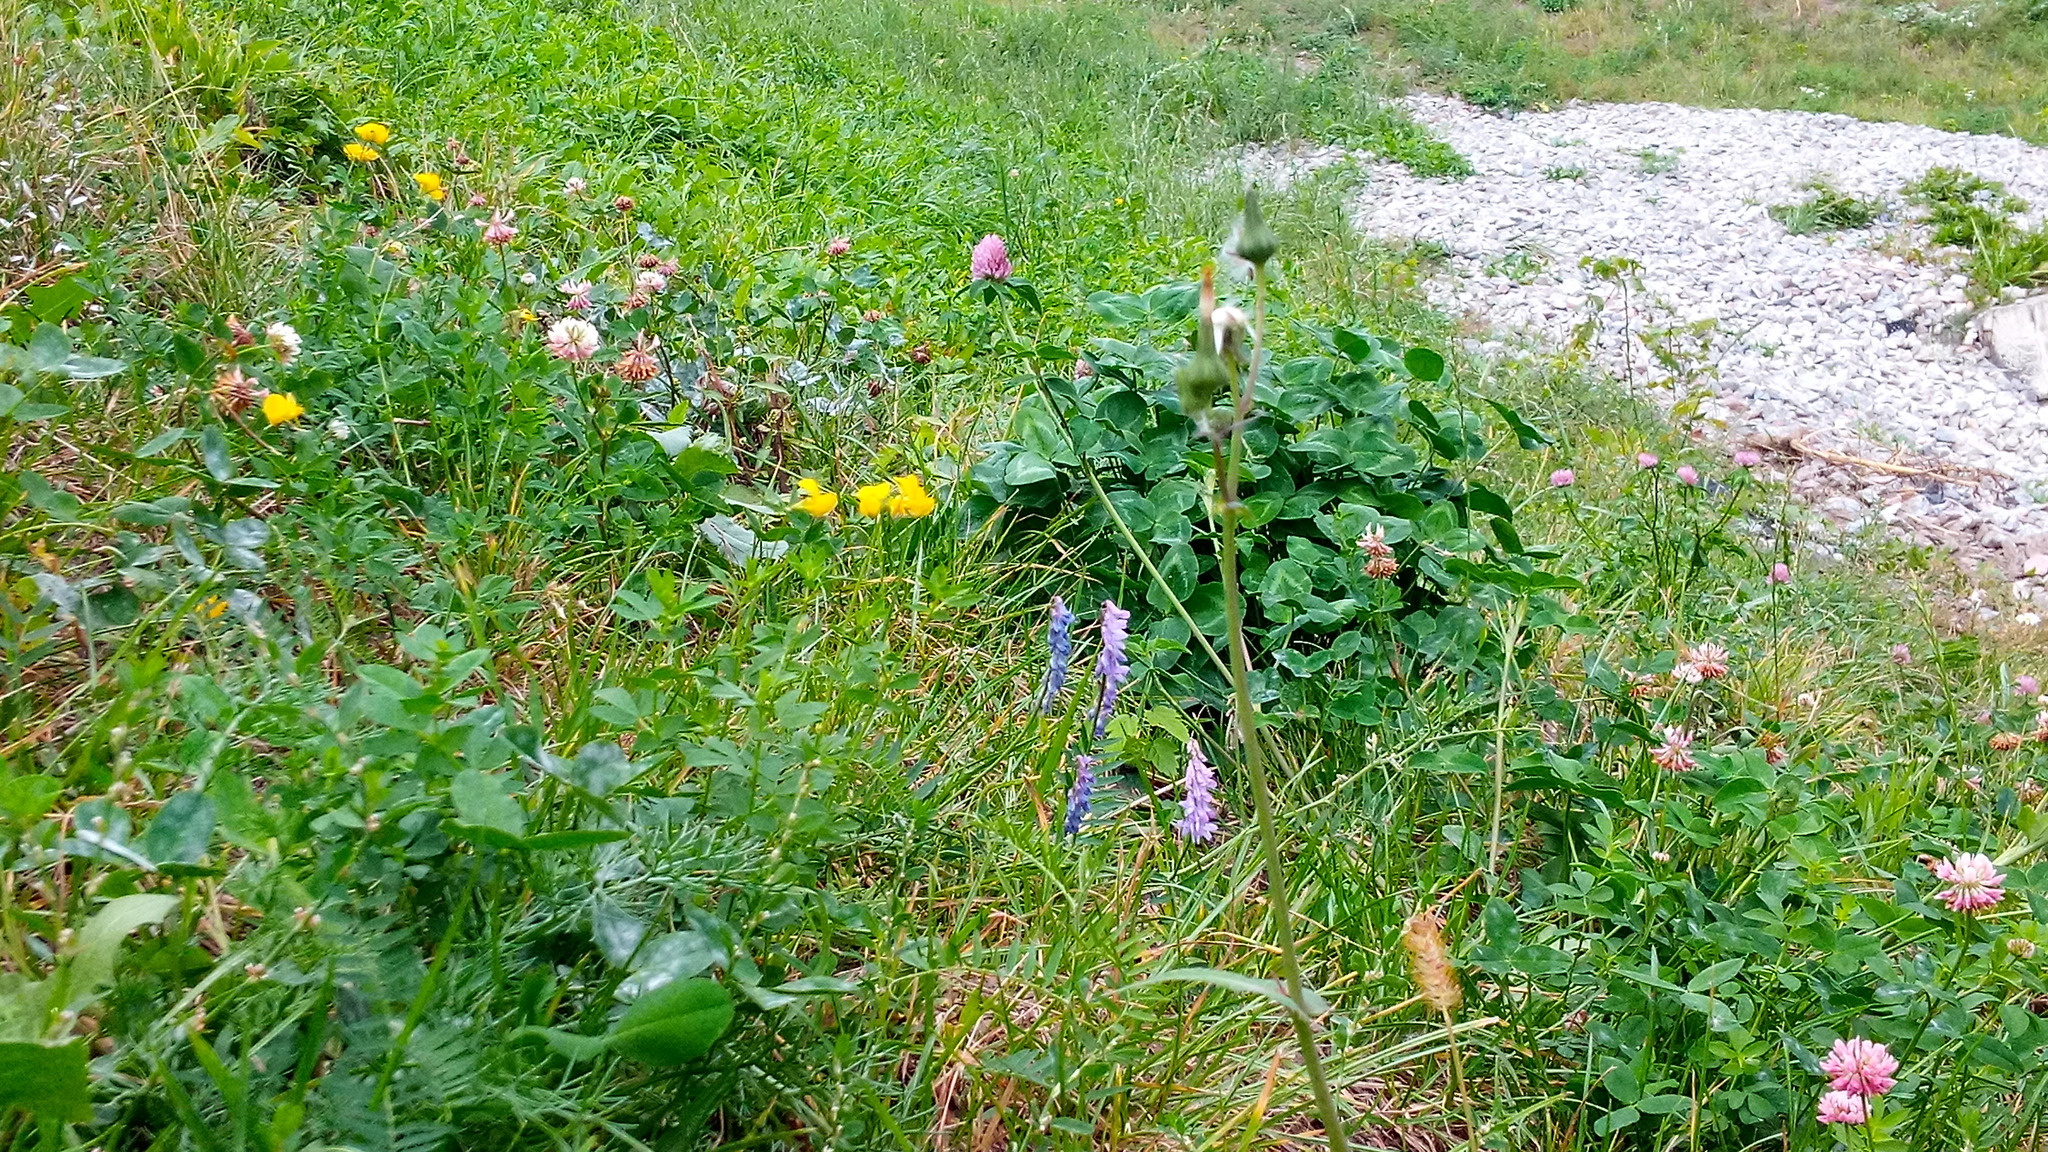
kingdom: Plantae
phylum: Tracheophyta
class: Magnoliopsida
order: Fabales
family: Fabaceae
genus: Vicia
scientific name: Vicia cracca
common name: Bird vetch
